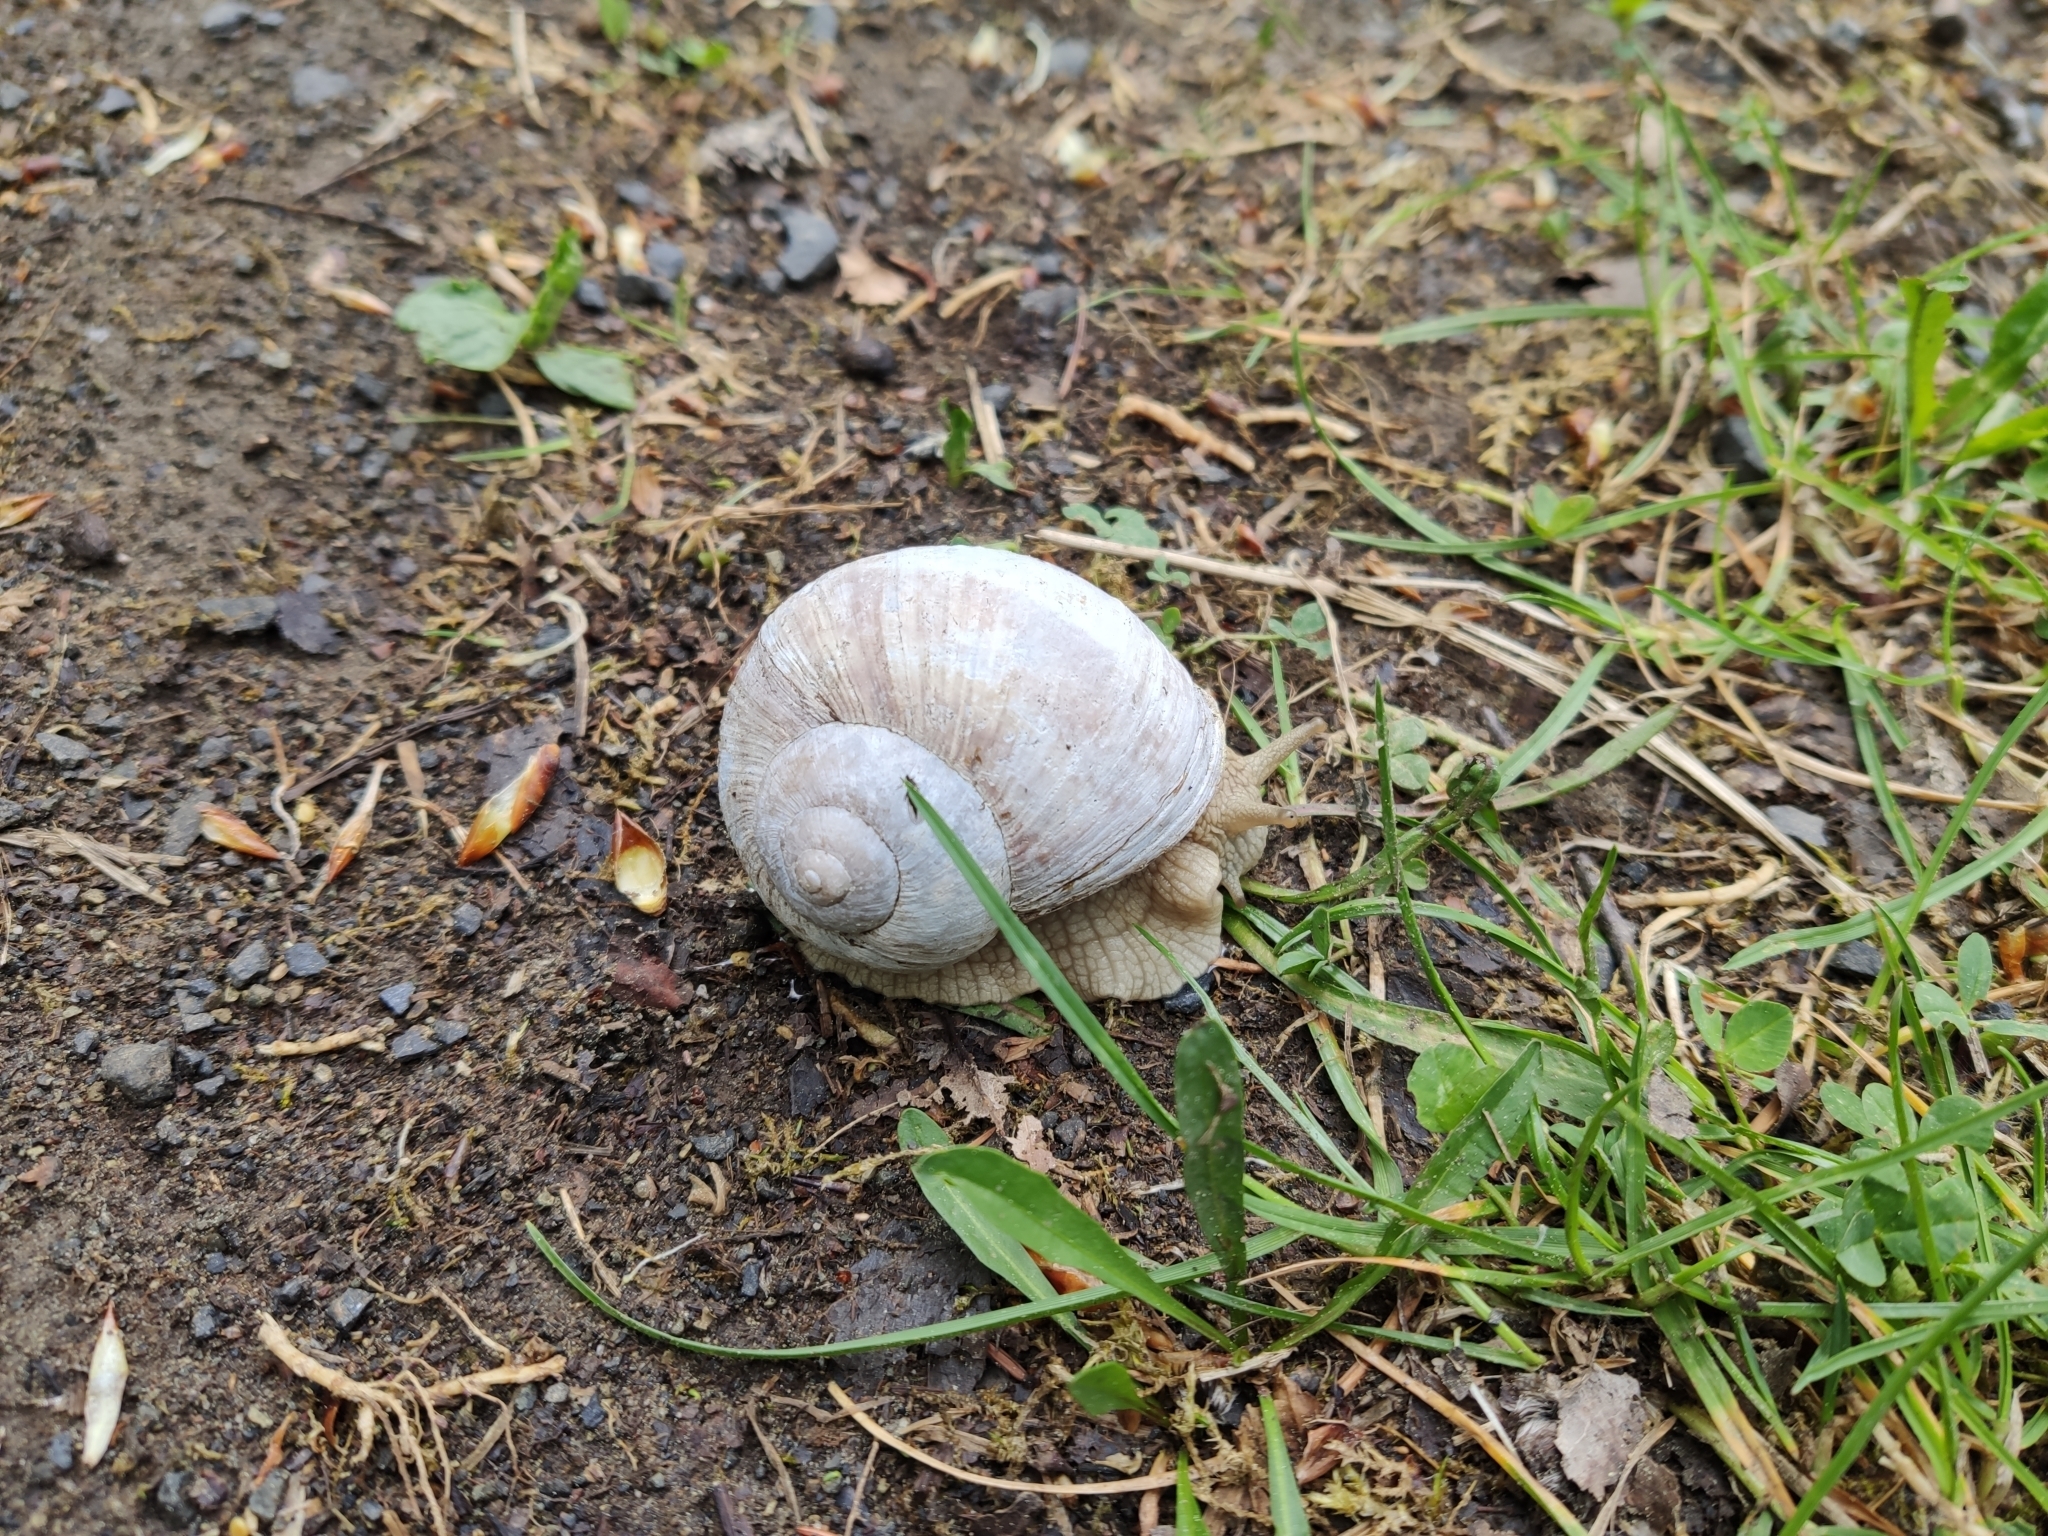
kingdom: Animalia
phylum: Mollusca
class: Gastropoda
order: Stylommatophora
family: Helicidae
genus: Helix
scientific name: Helix pomatia
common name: Roman snail
